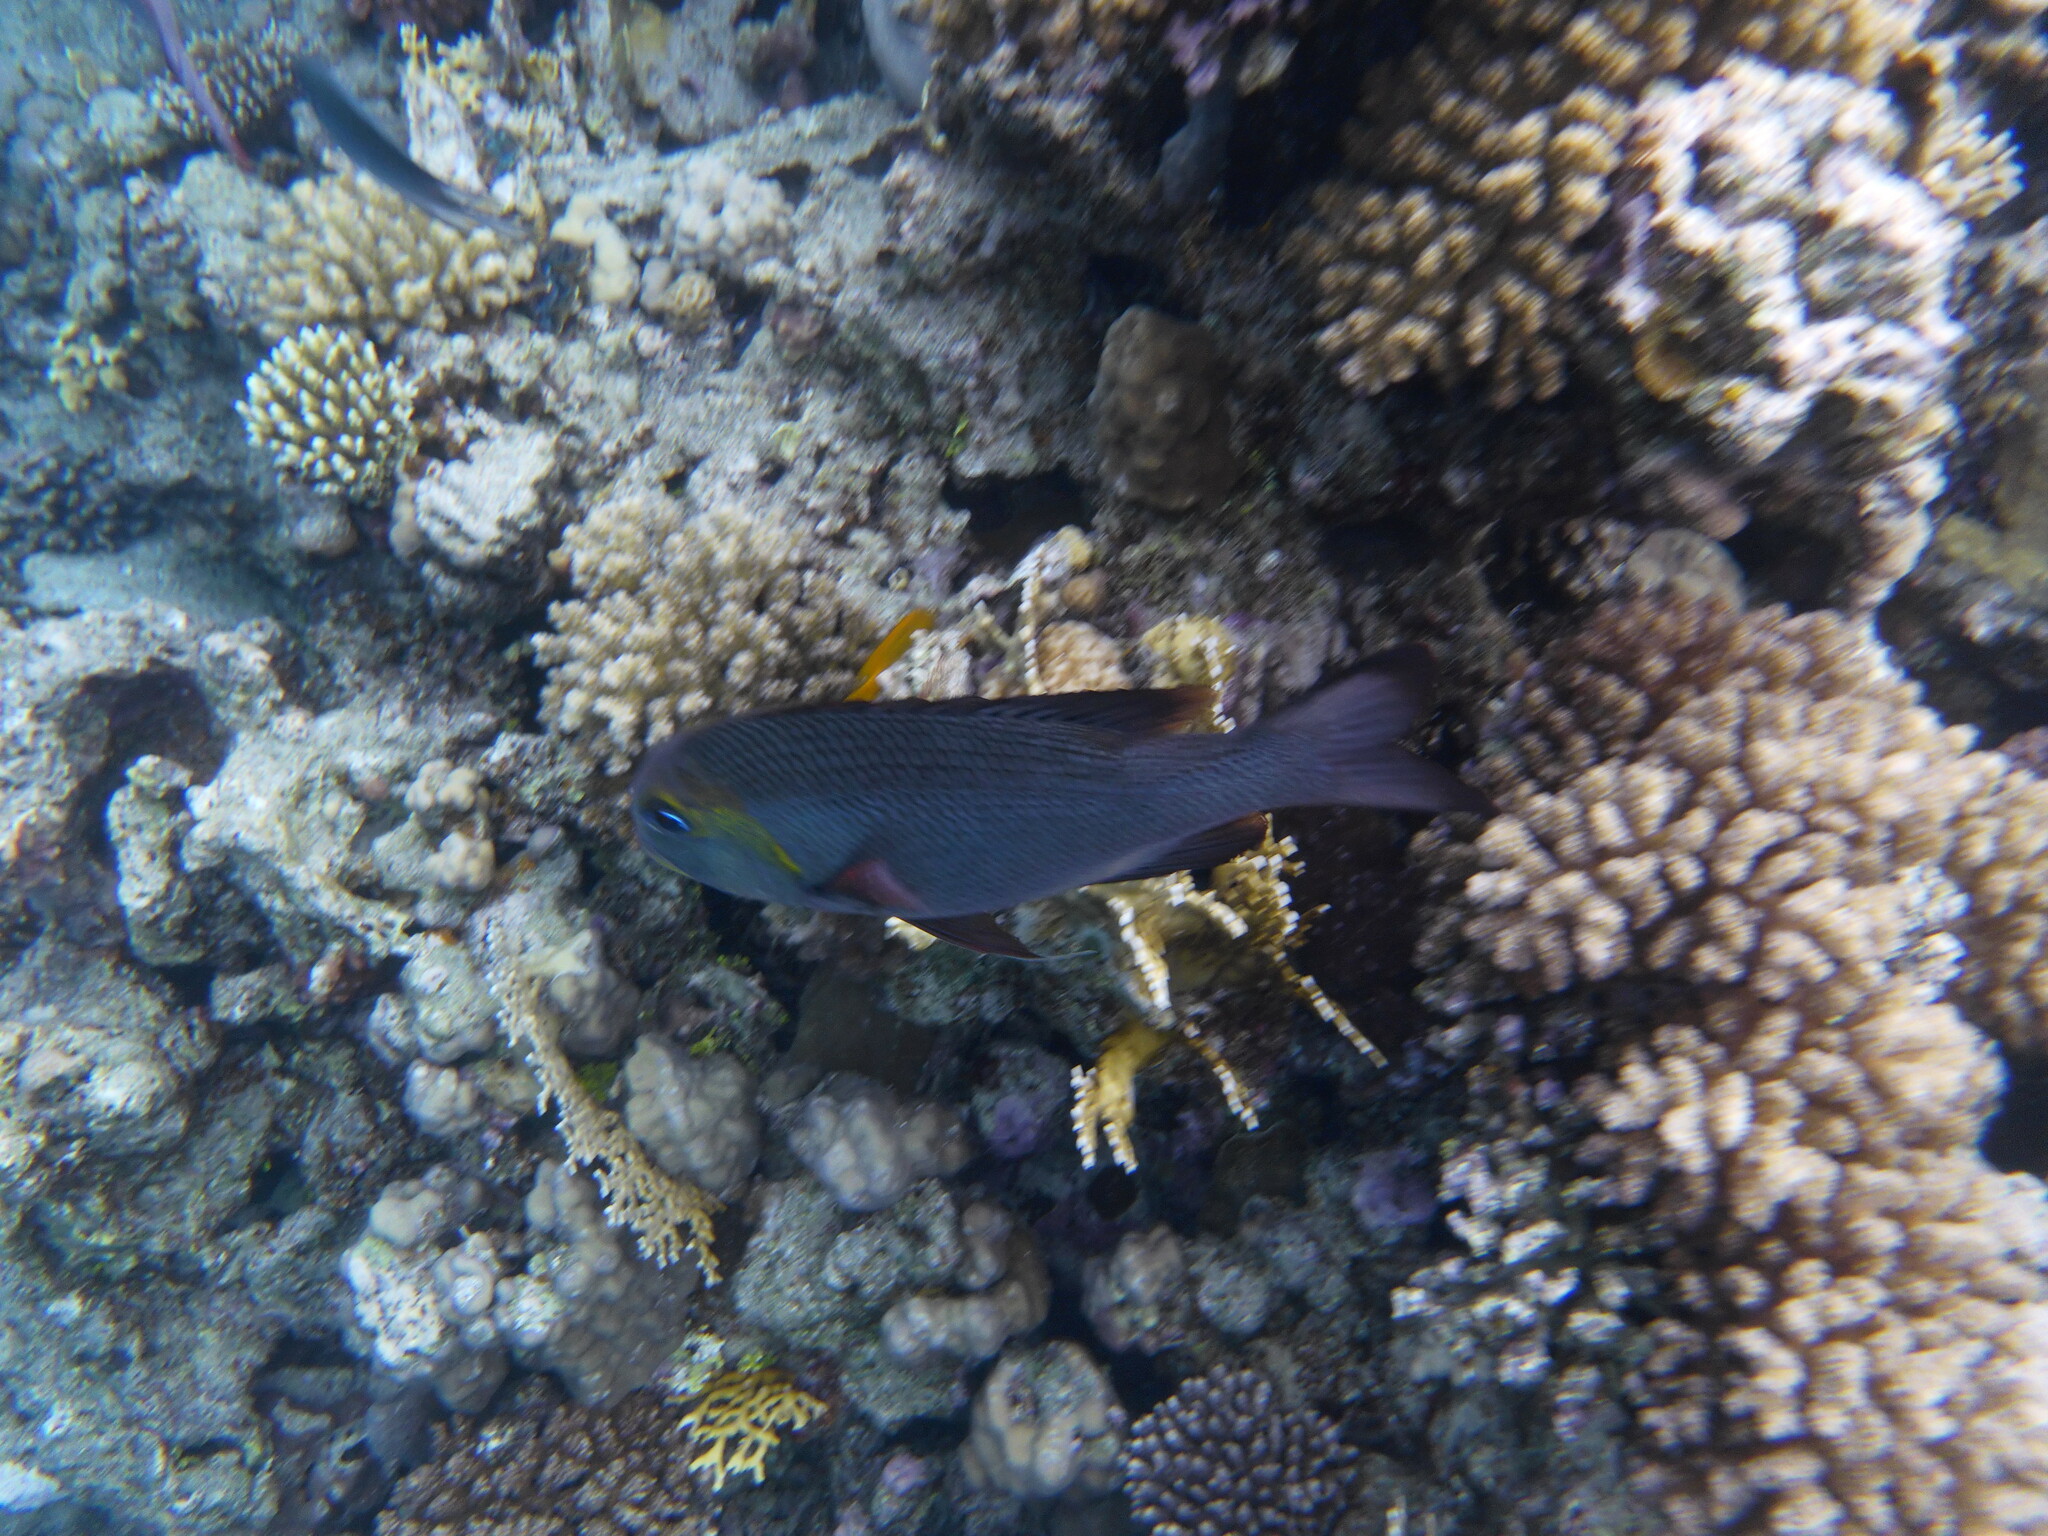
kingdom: Animalia
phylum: Chordata
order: Perciformes
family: Lethrinidae
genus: Monotaxis
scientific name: Monotaxis grandoculis
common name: Bigeye emperor
